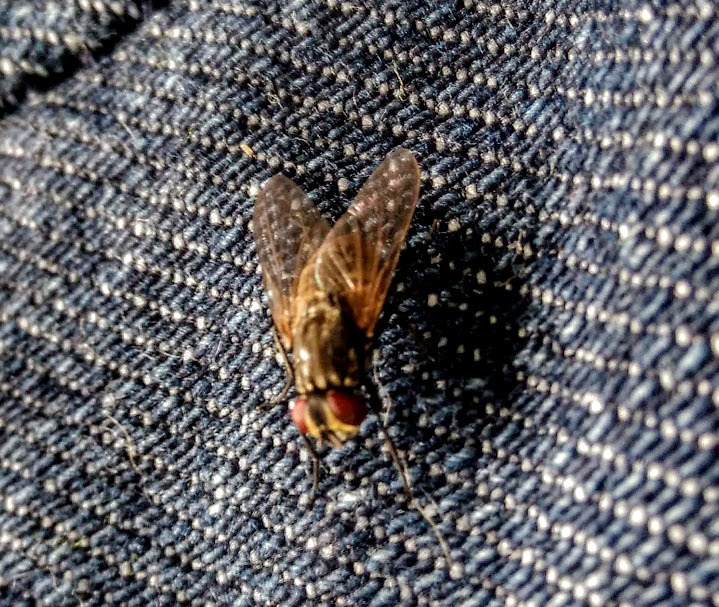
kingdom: Animalia
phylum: Arthropoda
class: Insecta
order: Diptera
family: Muscidae
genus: Musca
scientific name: Musca domestica
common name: House fly
